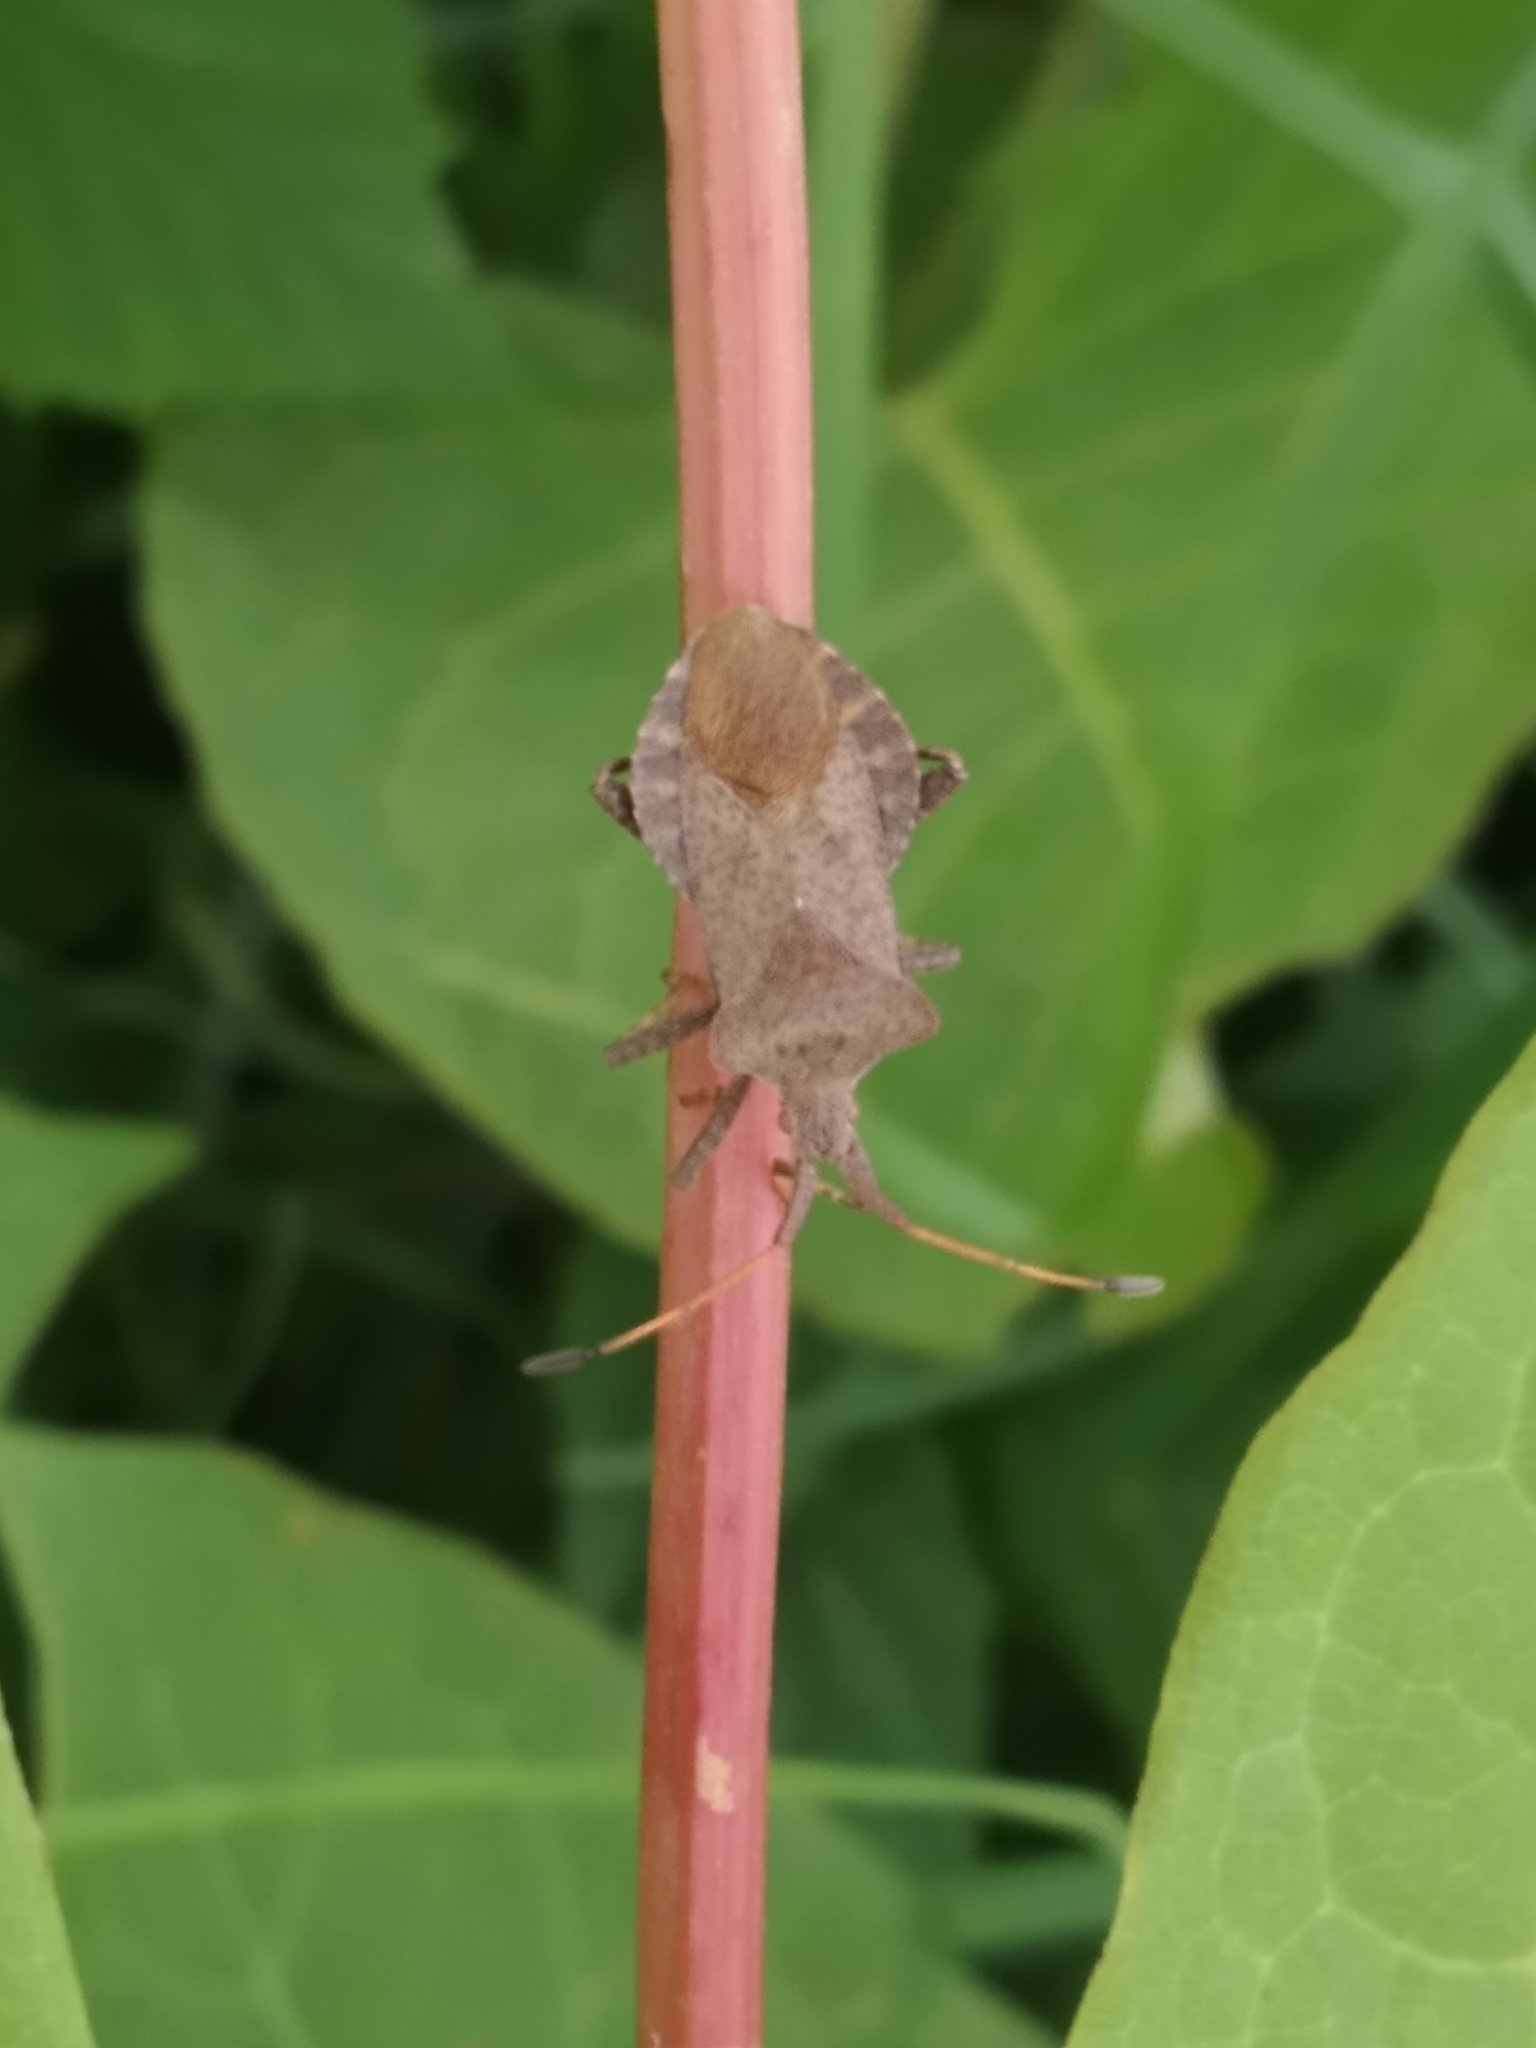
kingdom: Animalia
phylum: Arthropoda
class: Insecta
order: Hemiptera
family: Coreidae
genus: Coreus
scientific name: Coreus marginatus
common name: Dock bug
